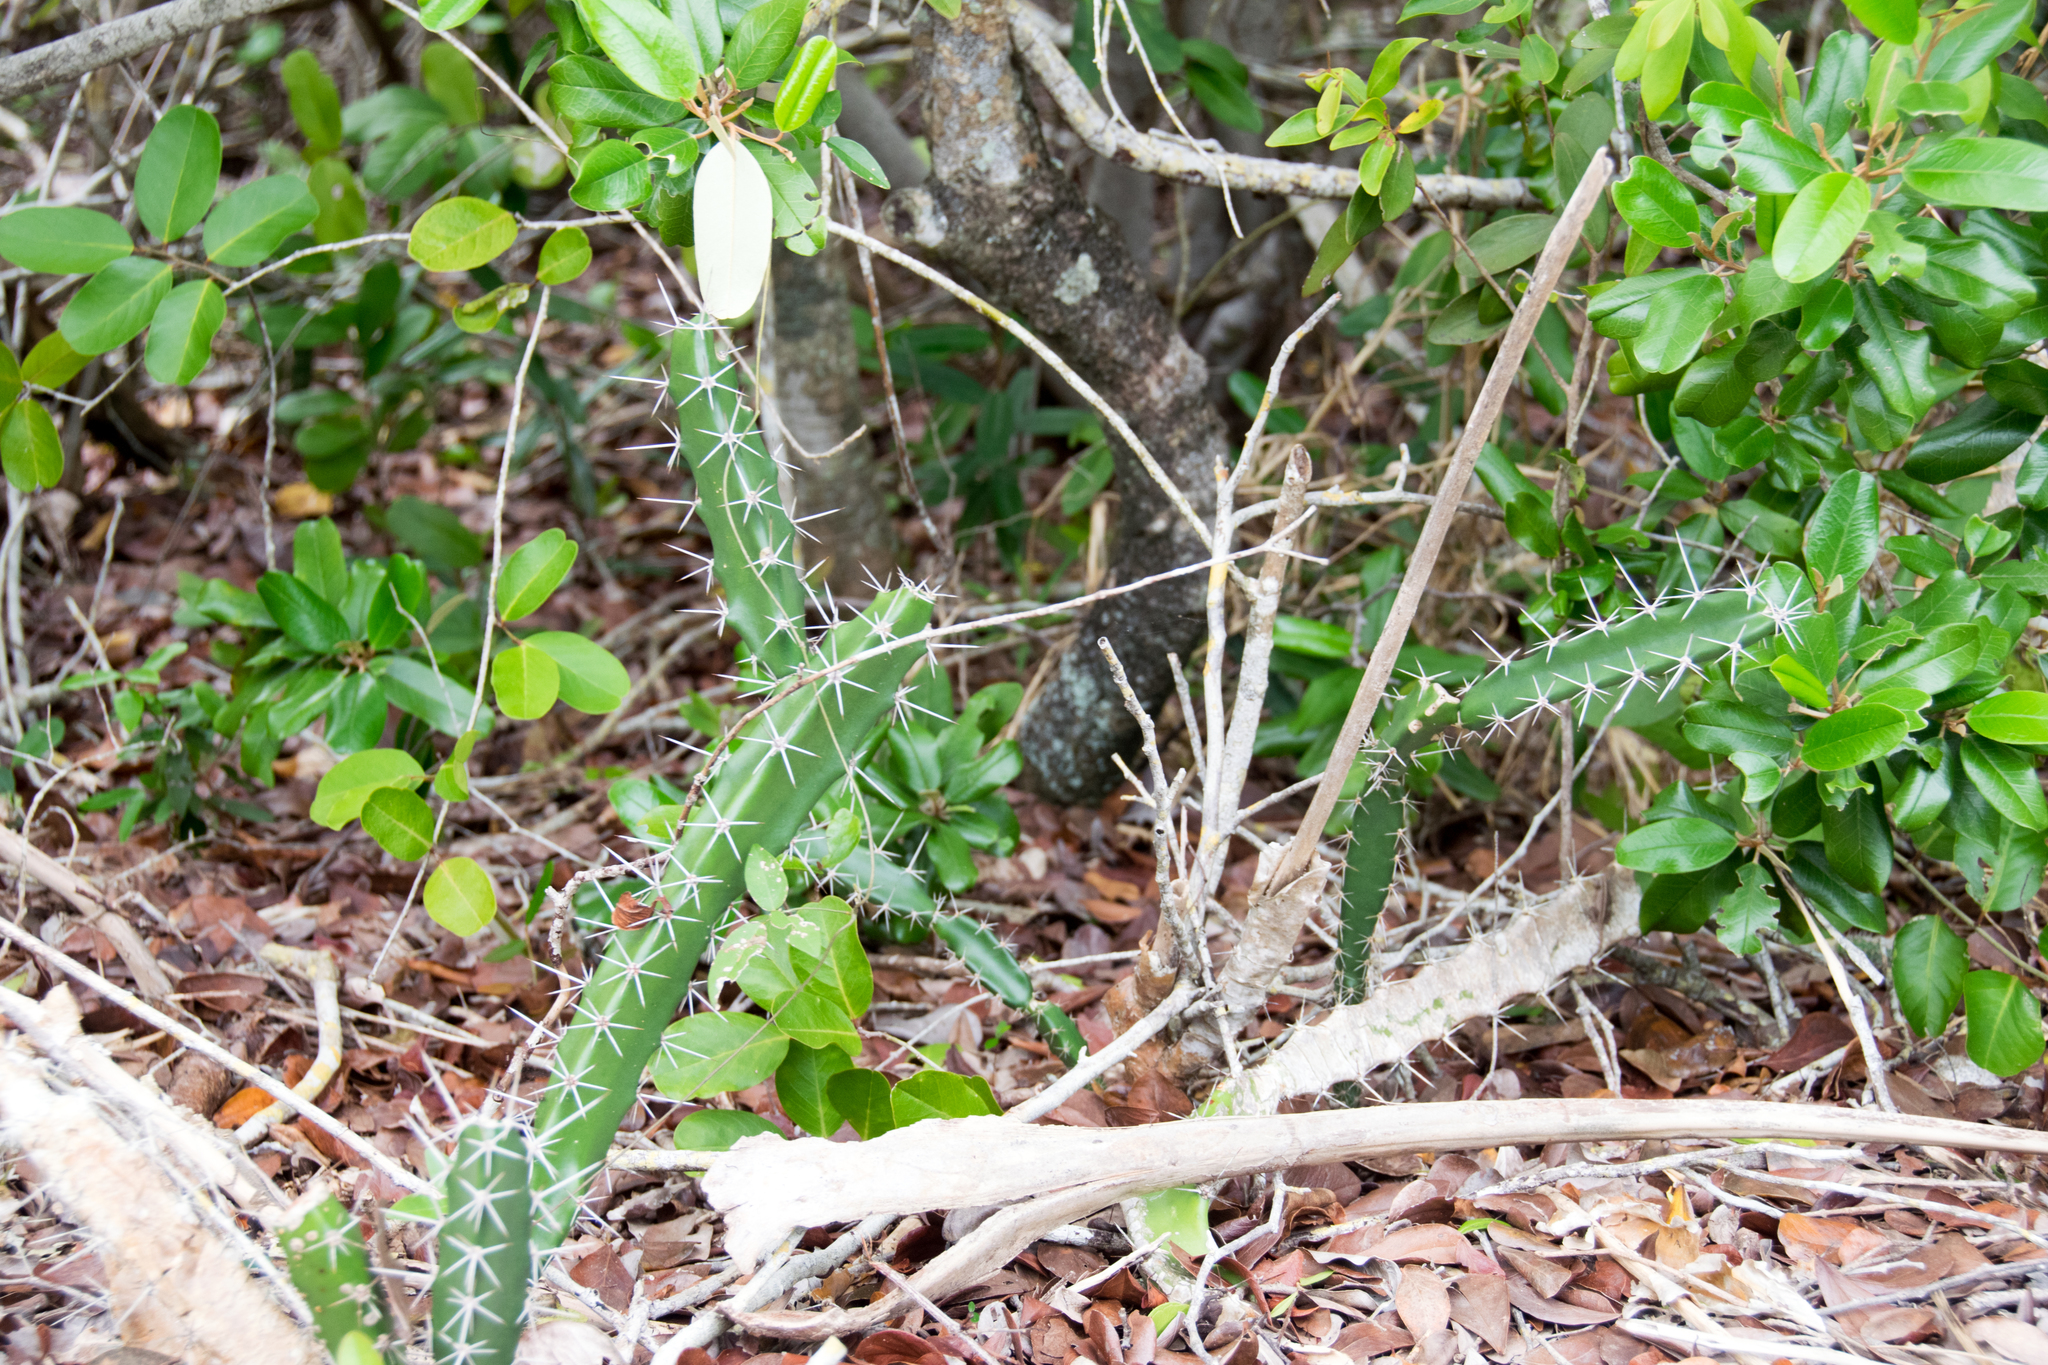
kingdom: Plantae
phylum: Tracheophyta
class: Magnoliopsida
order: Caryophyllales
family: Cactaceae
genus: Acanthocereus
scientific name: Acanthocereus tetragonus
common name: Triangle cactus
